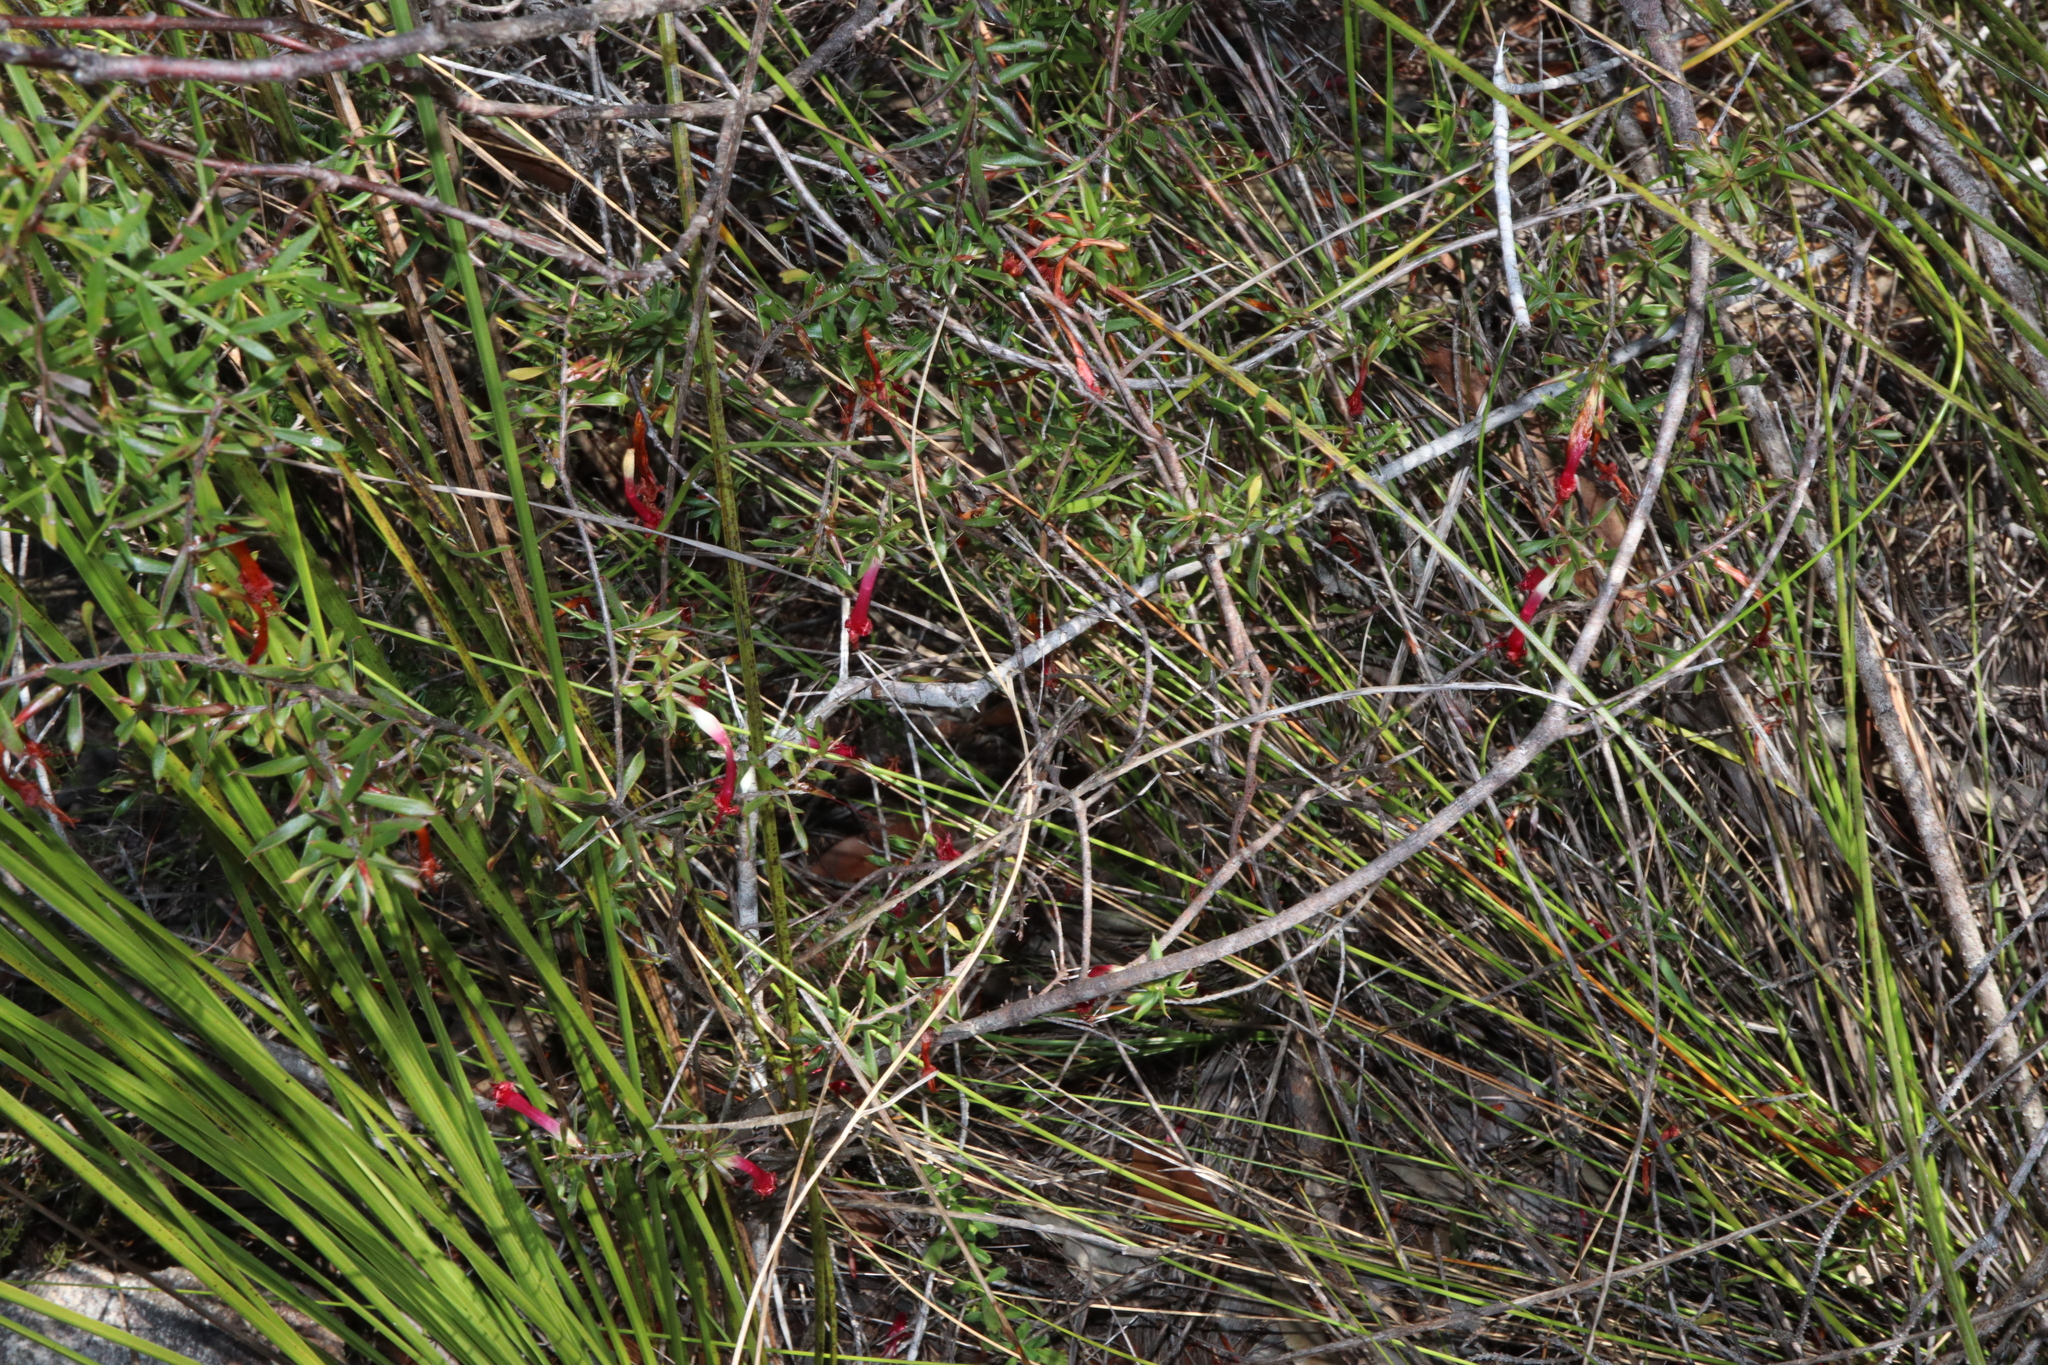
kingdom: Plantae
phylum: Tracheophyta
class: Magnoliopsida
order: Ericales
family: Ericaceae
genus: Styphelia
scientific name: Styphelia tubiflora
